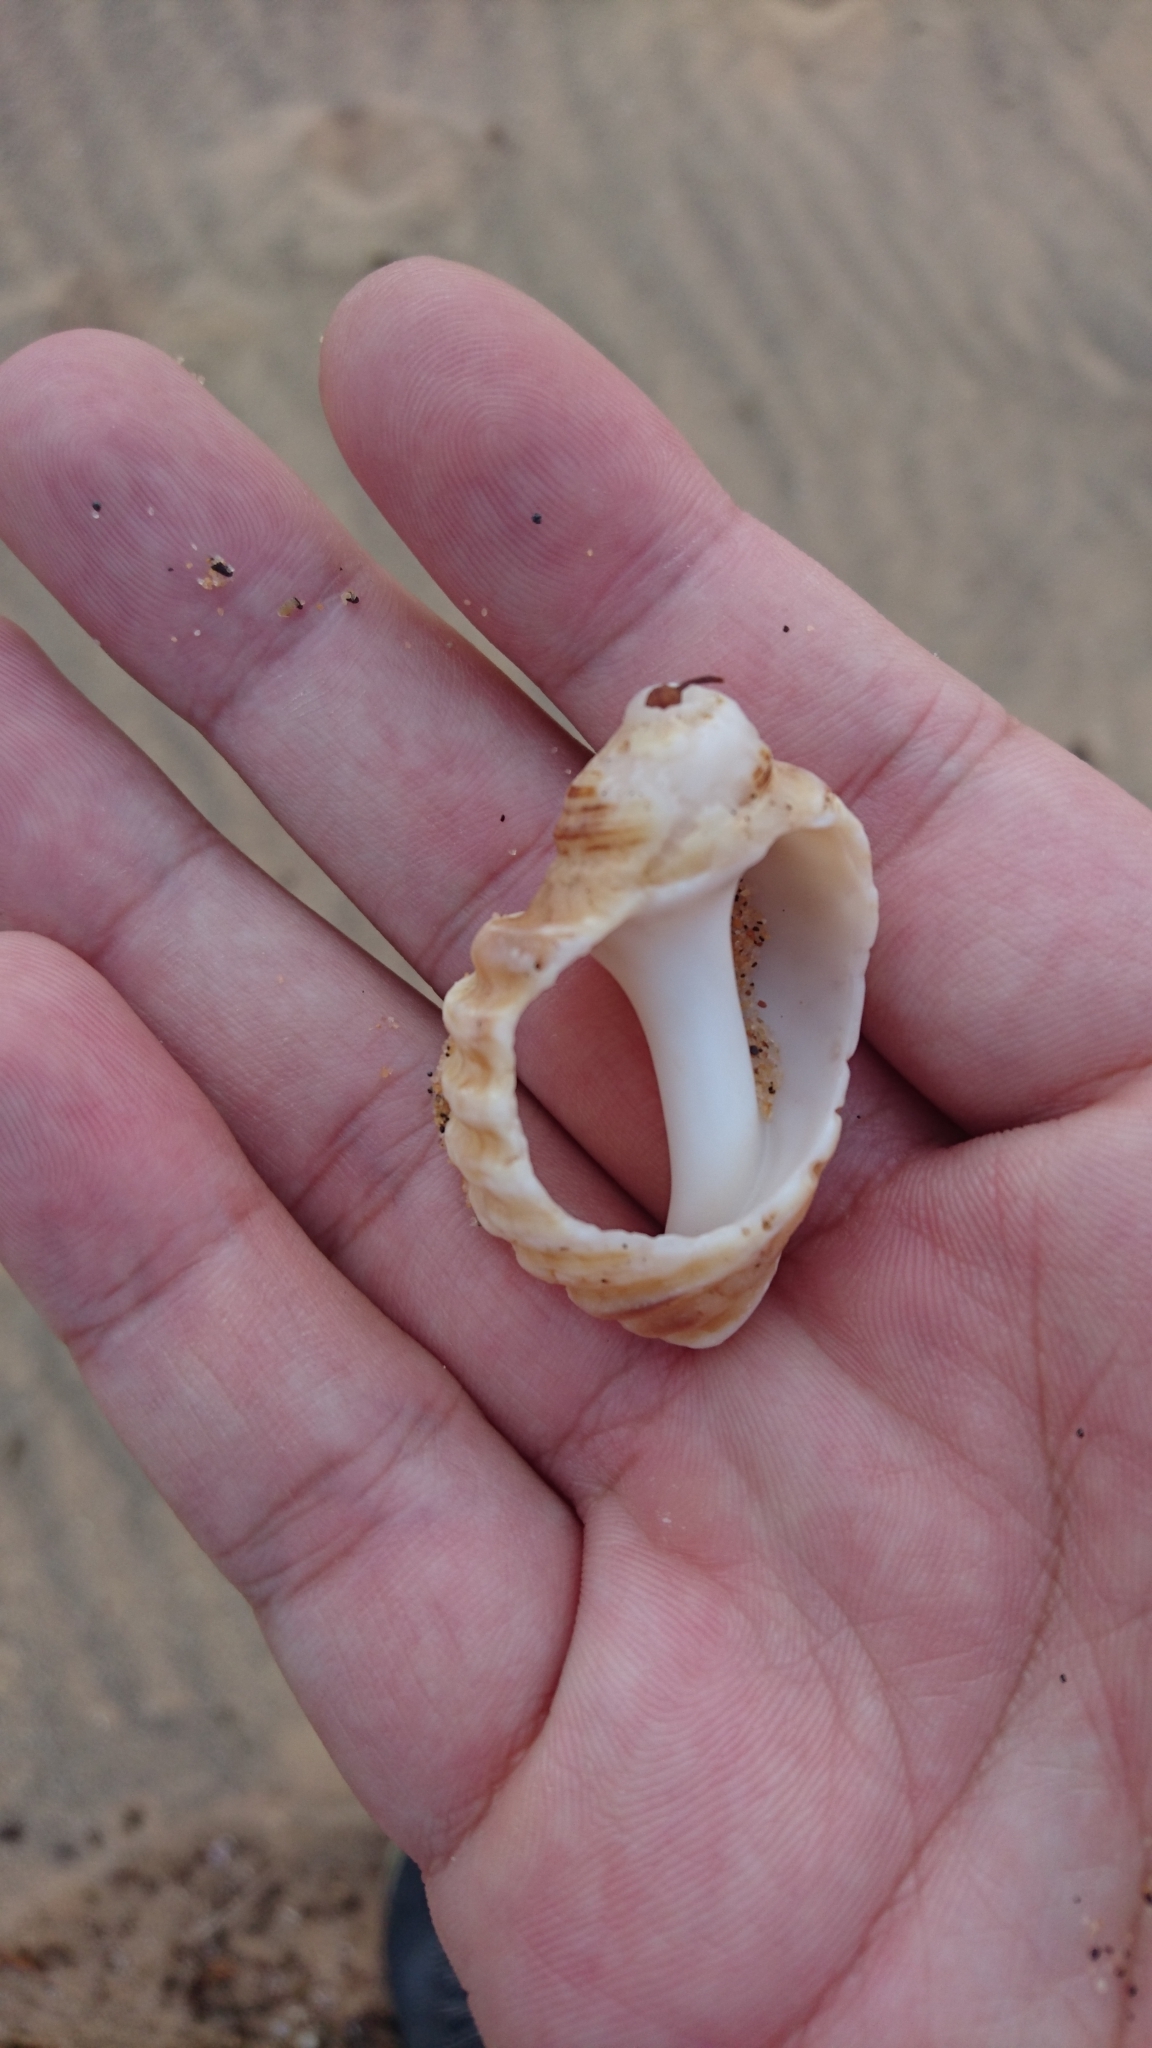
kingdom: Animalia
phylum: Mollusca
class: Gastropoda
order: Neogastropoda
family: Muricidae
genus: Dicathais
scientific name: Dicathais orbita
